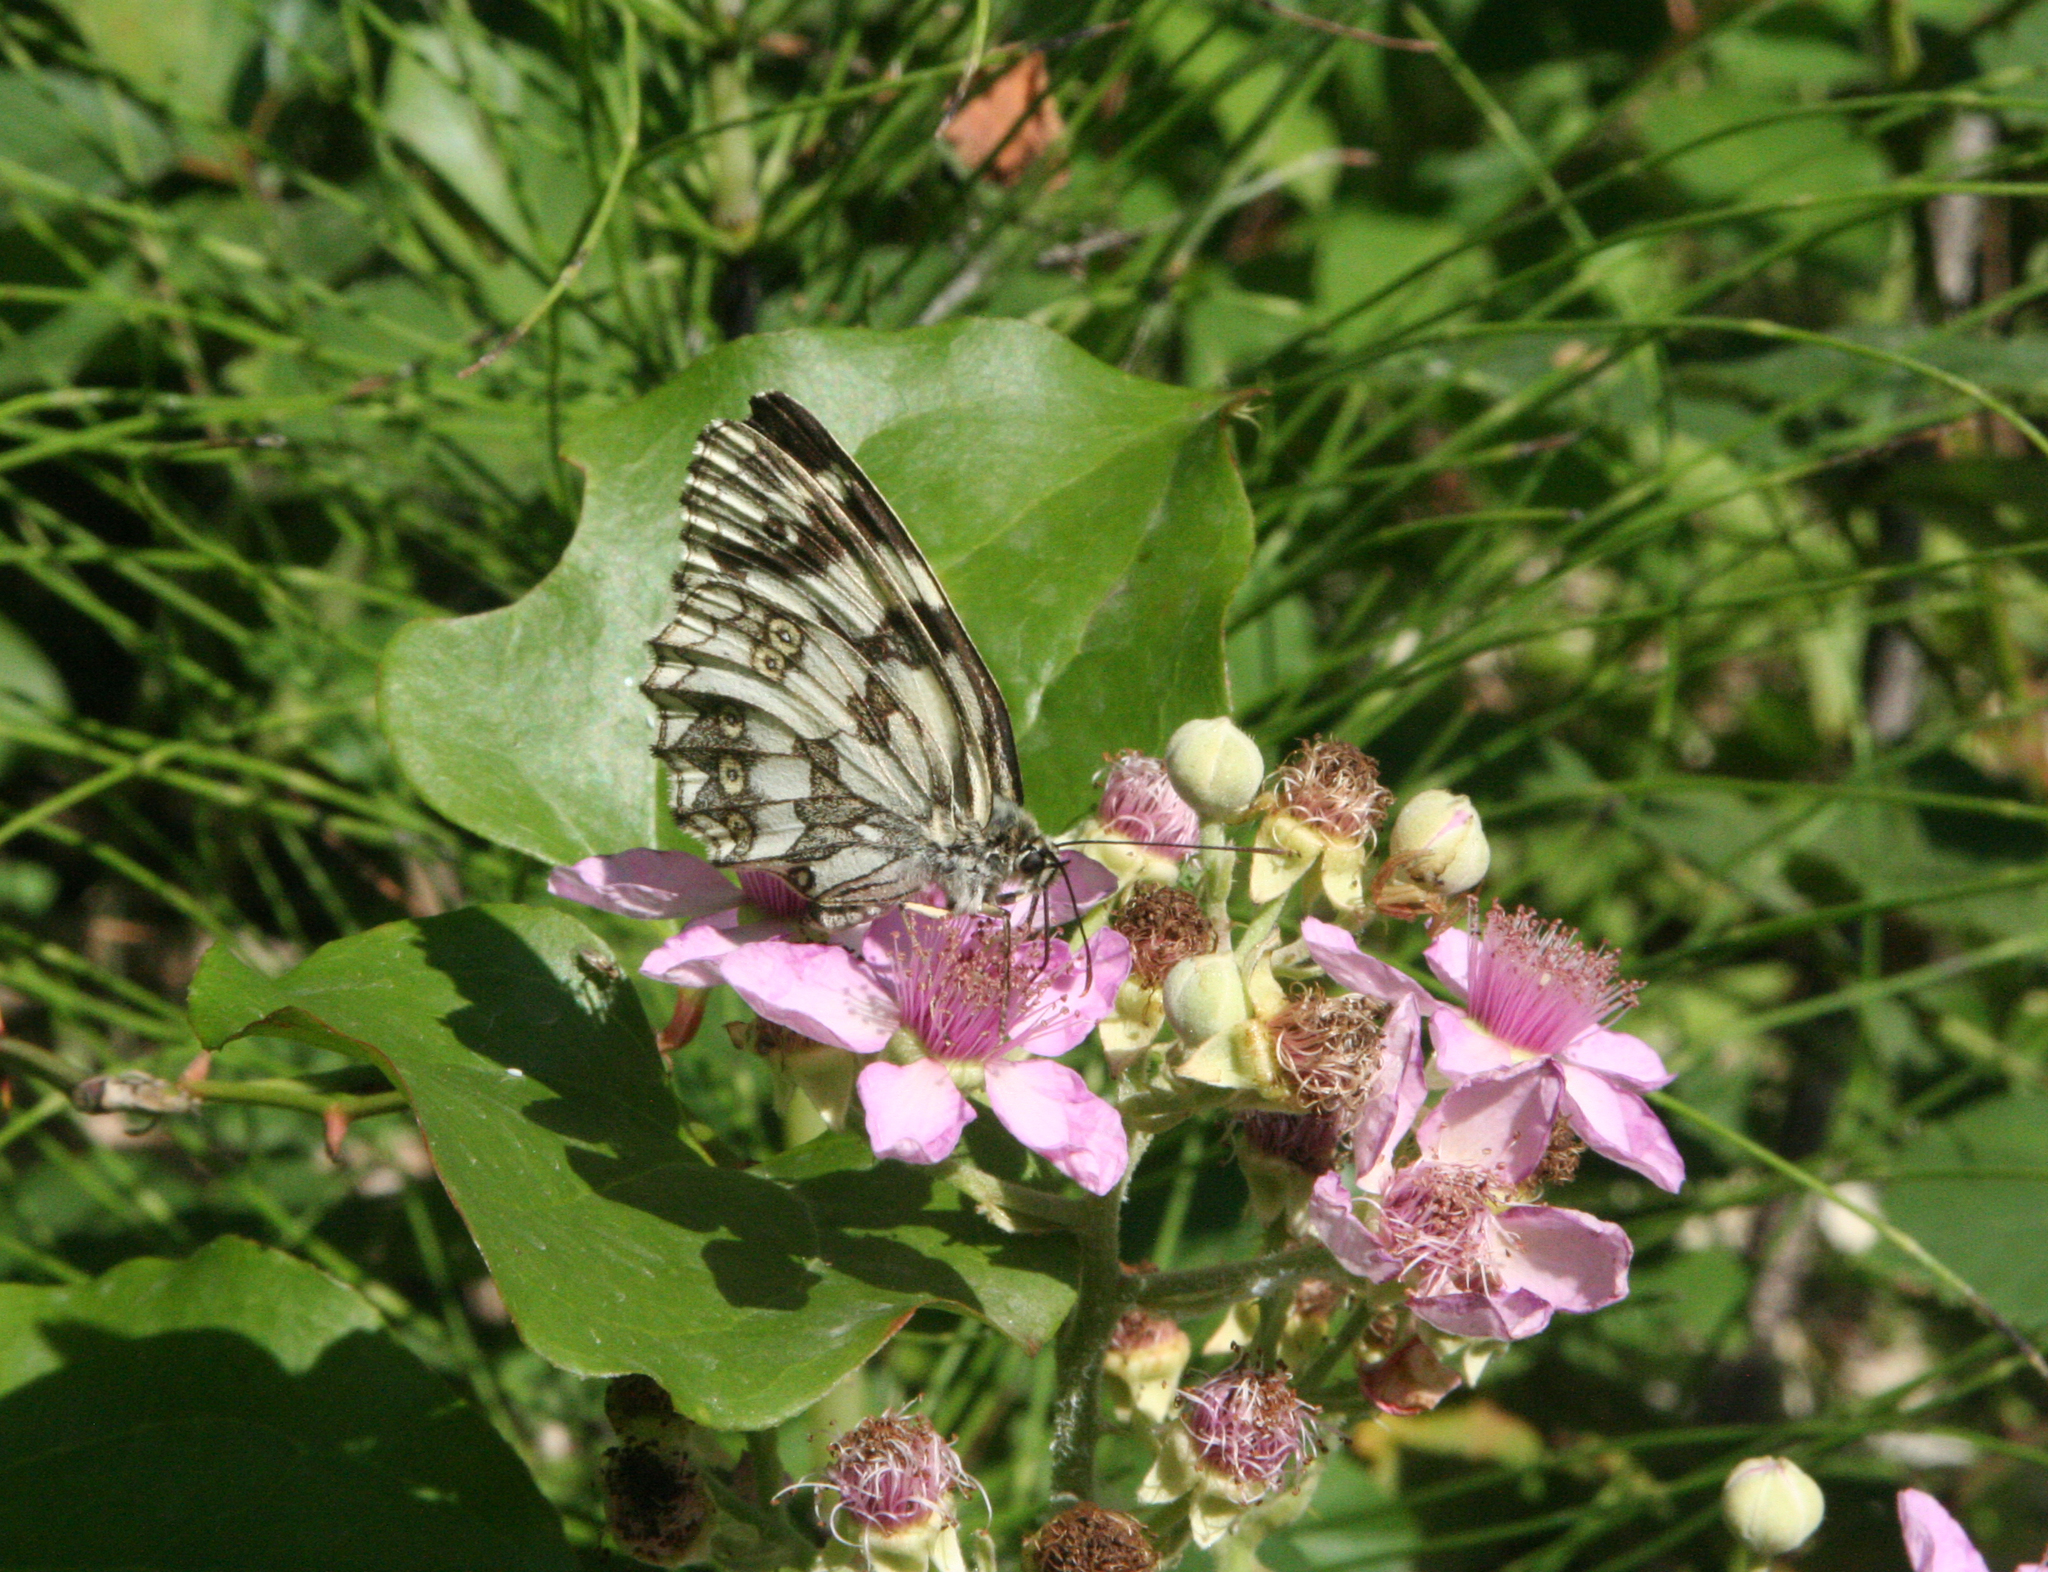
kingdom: Animalia
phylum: Arthropoda
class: Insecta
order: Lepidoptera
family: Nymphalidae
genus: Melanargia
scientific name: Melanargia galathea
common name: Marbled white
